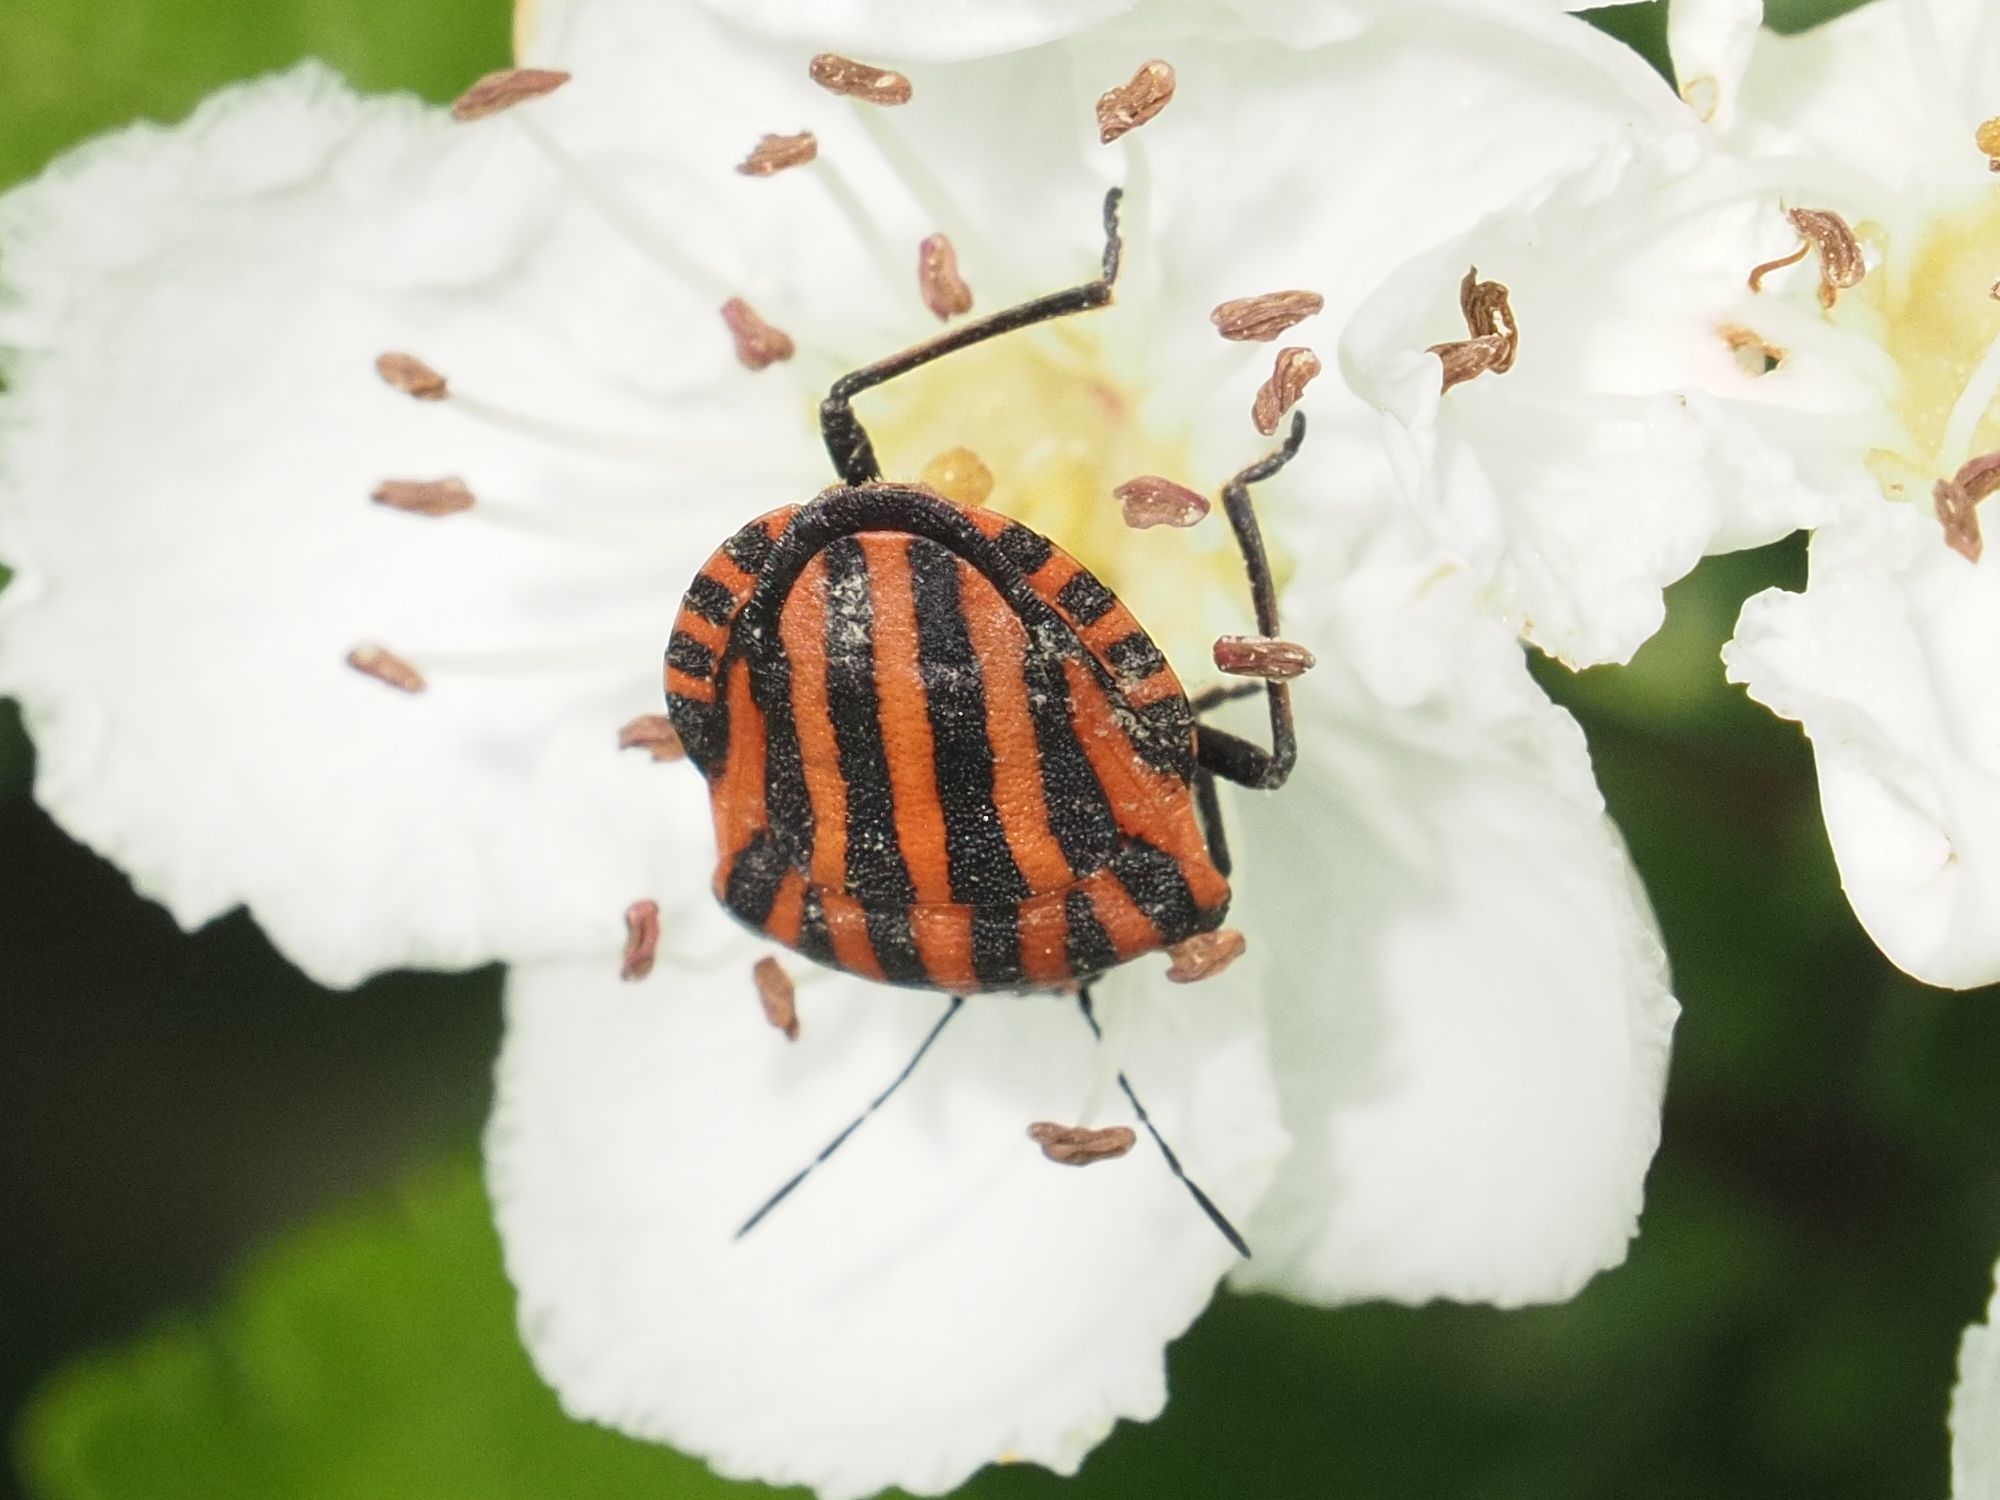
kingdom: Animalia
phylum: Arthropoda
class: Insecta
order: Hemiptera
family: Pentatomidae
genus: Graphosoma
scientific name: Graphosoma italicum
